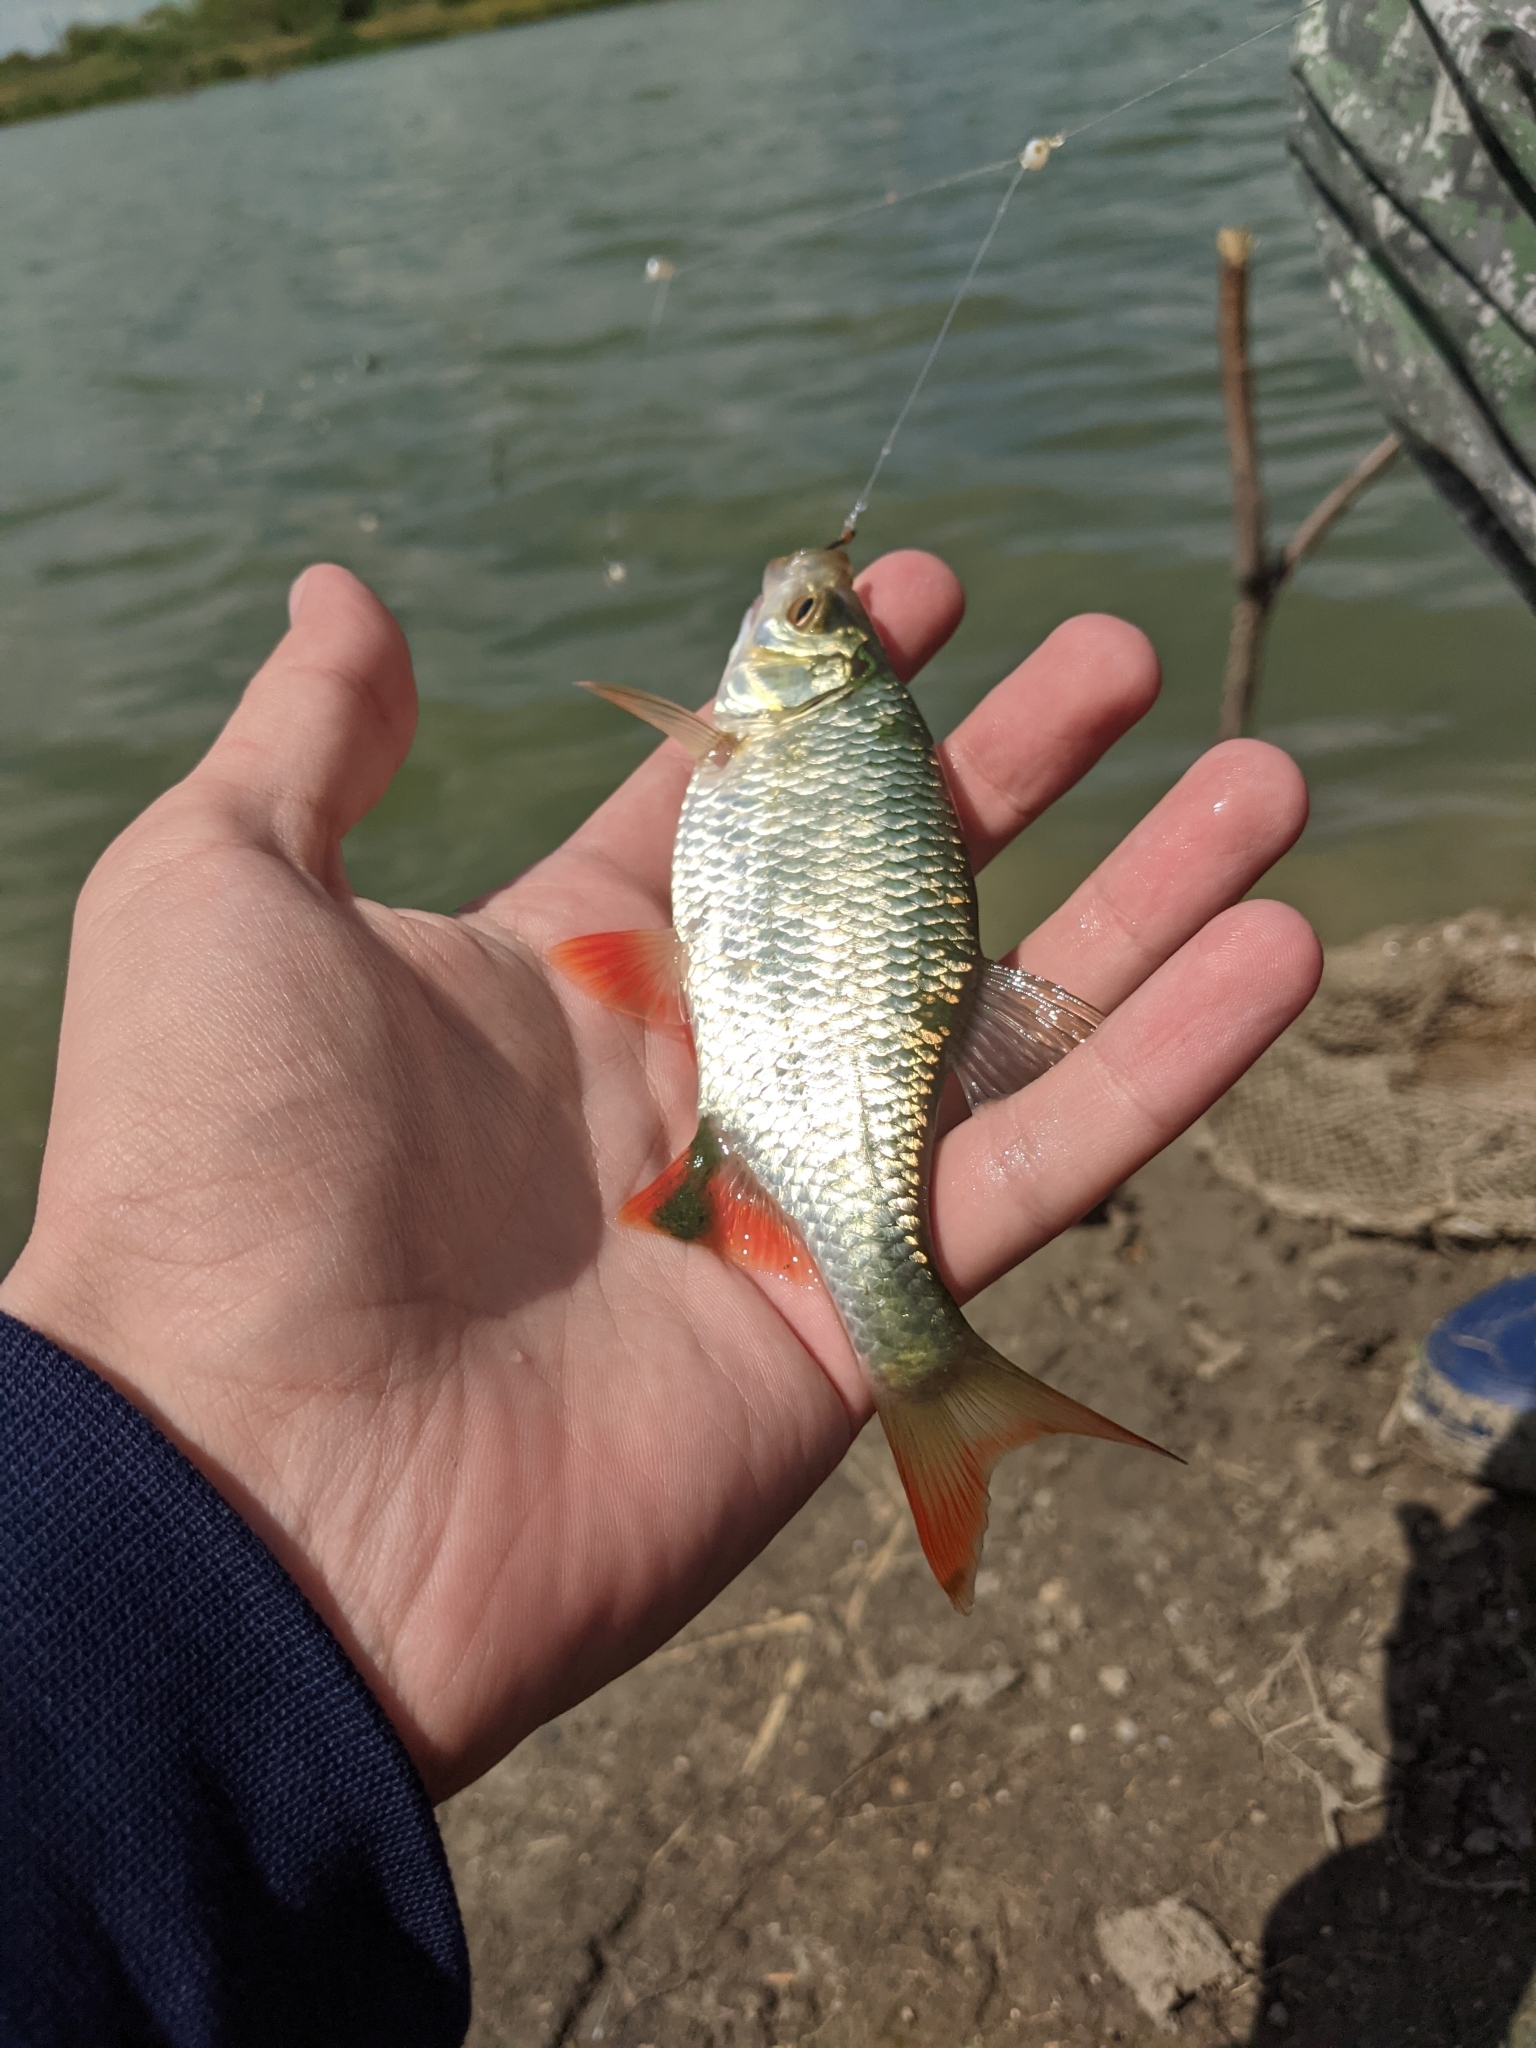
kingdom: Animalia
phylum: Chordata
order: Cypriniformes
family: Cyprinidae
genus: Scardinius
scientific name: Scardinius erythrophthalmus
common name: Rudd
